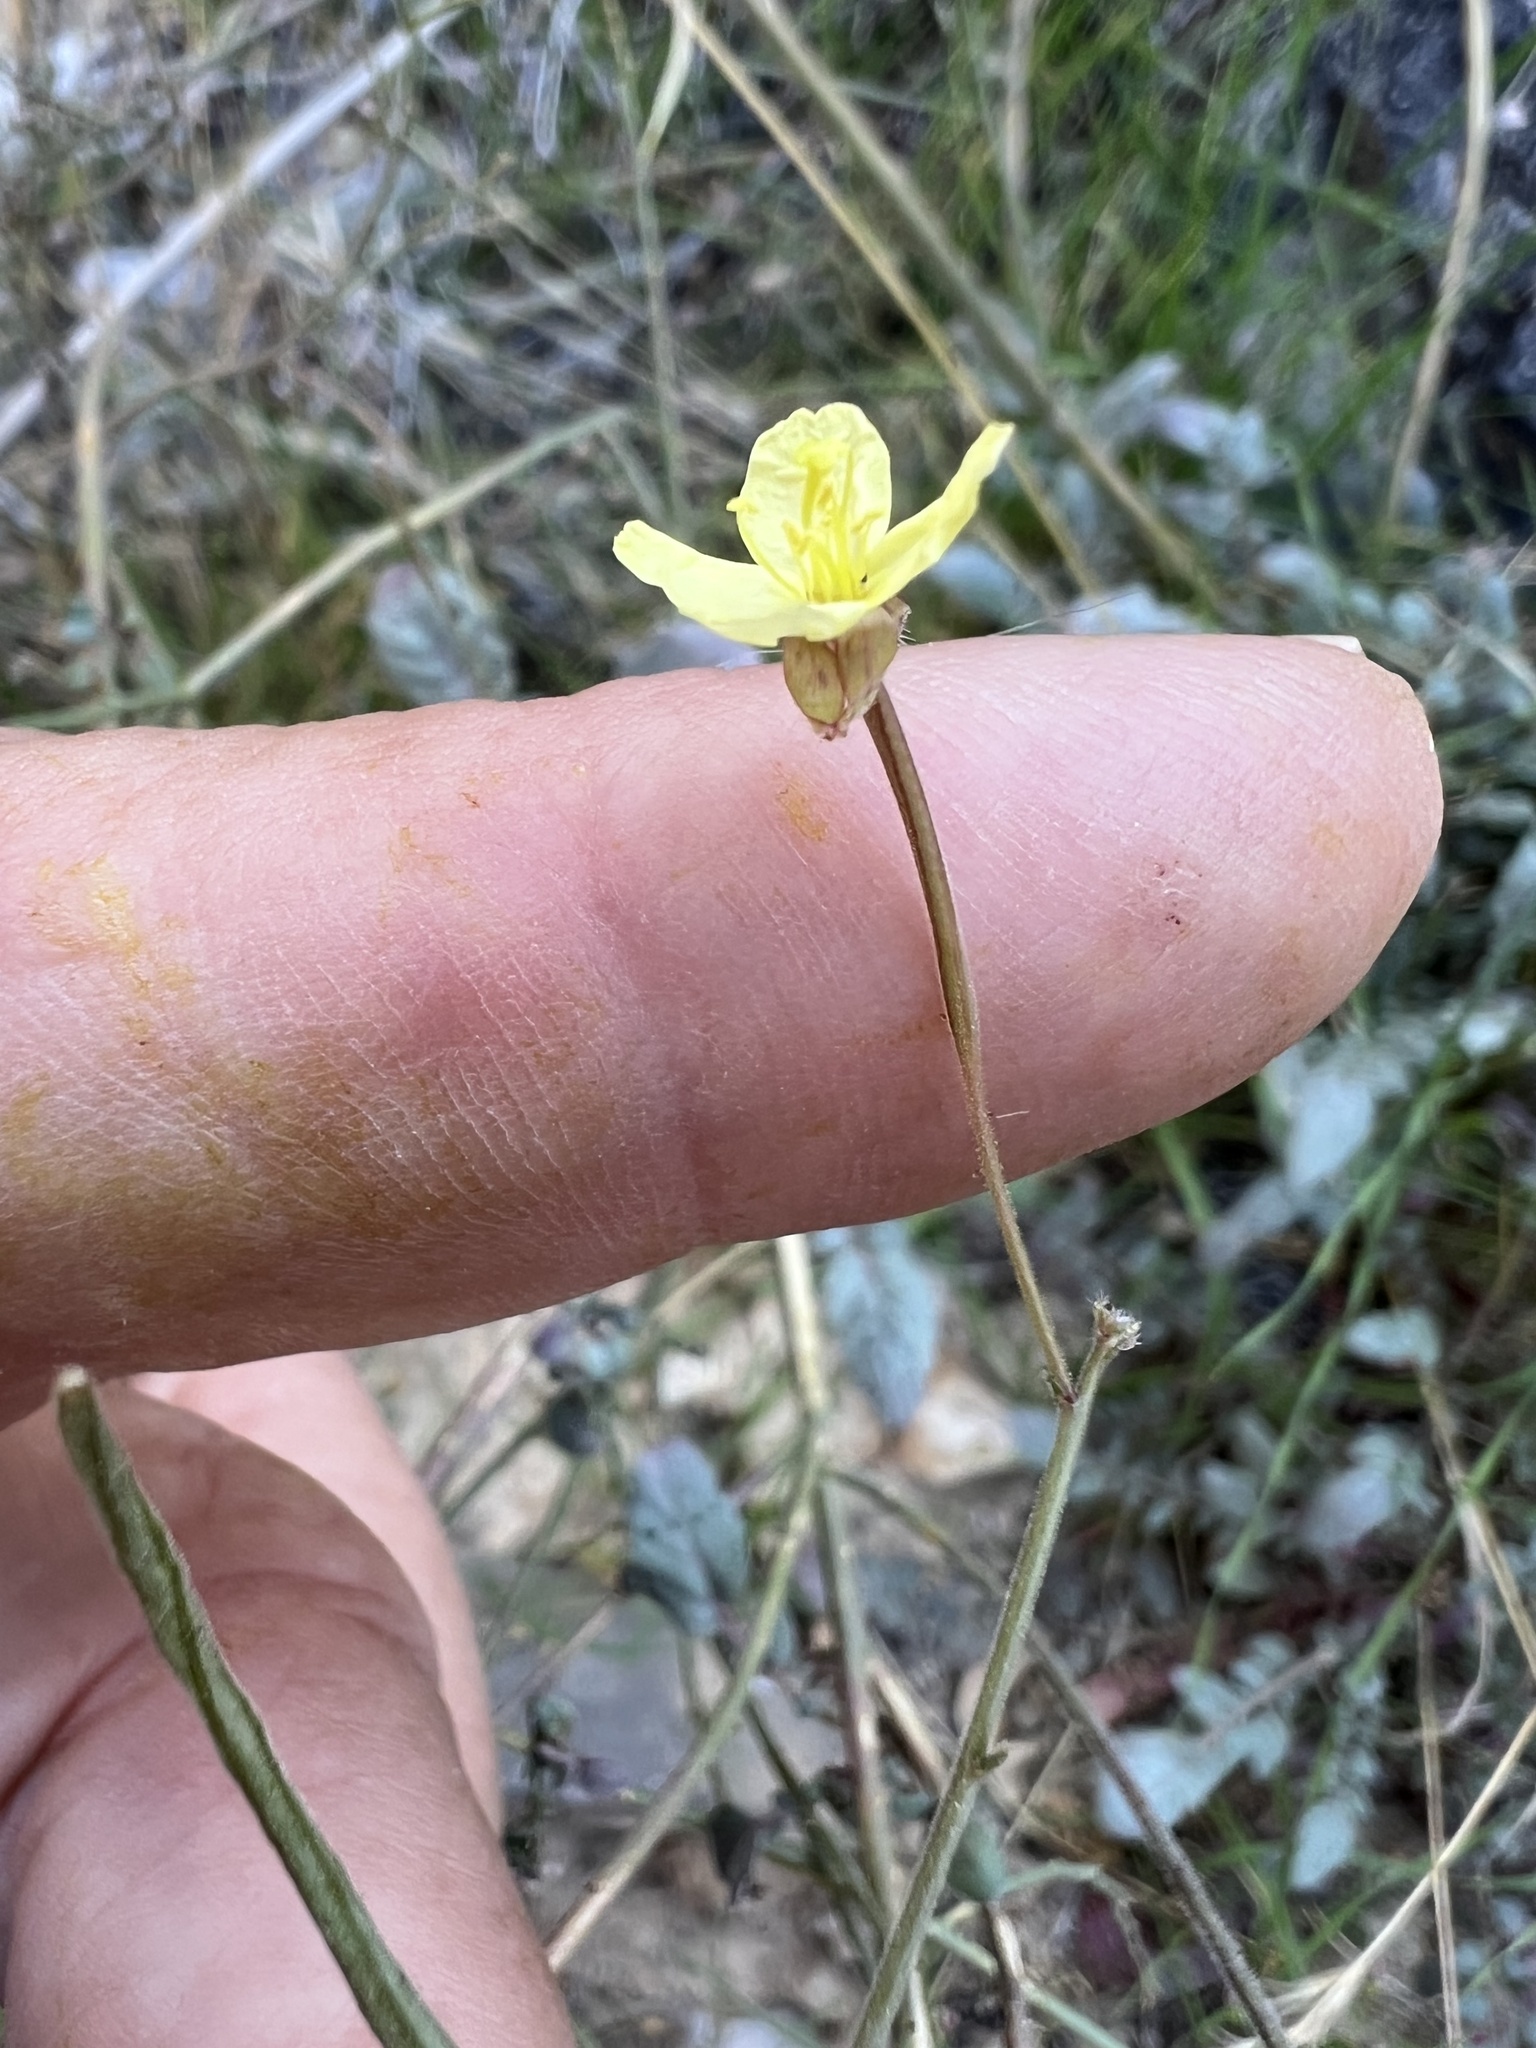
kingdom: Plantae
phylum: Tracheophyta
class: Magnoliopsida
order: Myrtales
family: Onagraceae
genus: Chylismia
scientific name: Chylismia walkeri
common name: Walker's suncup
